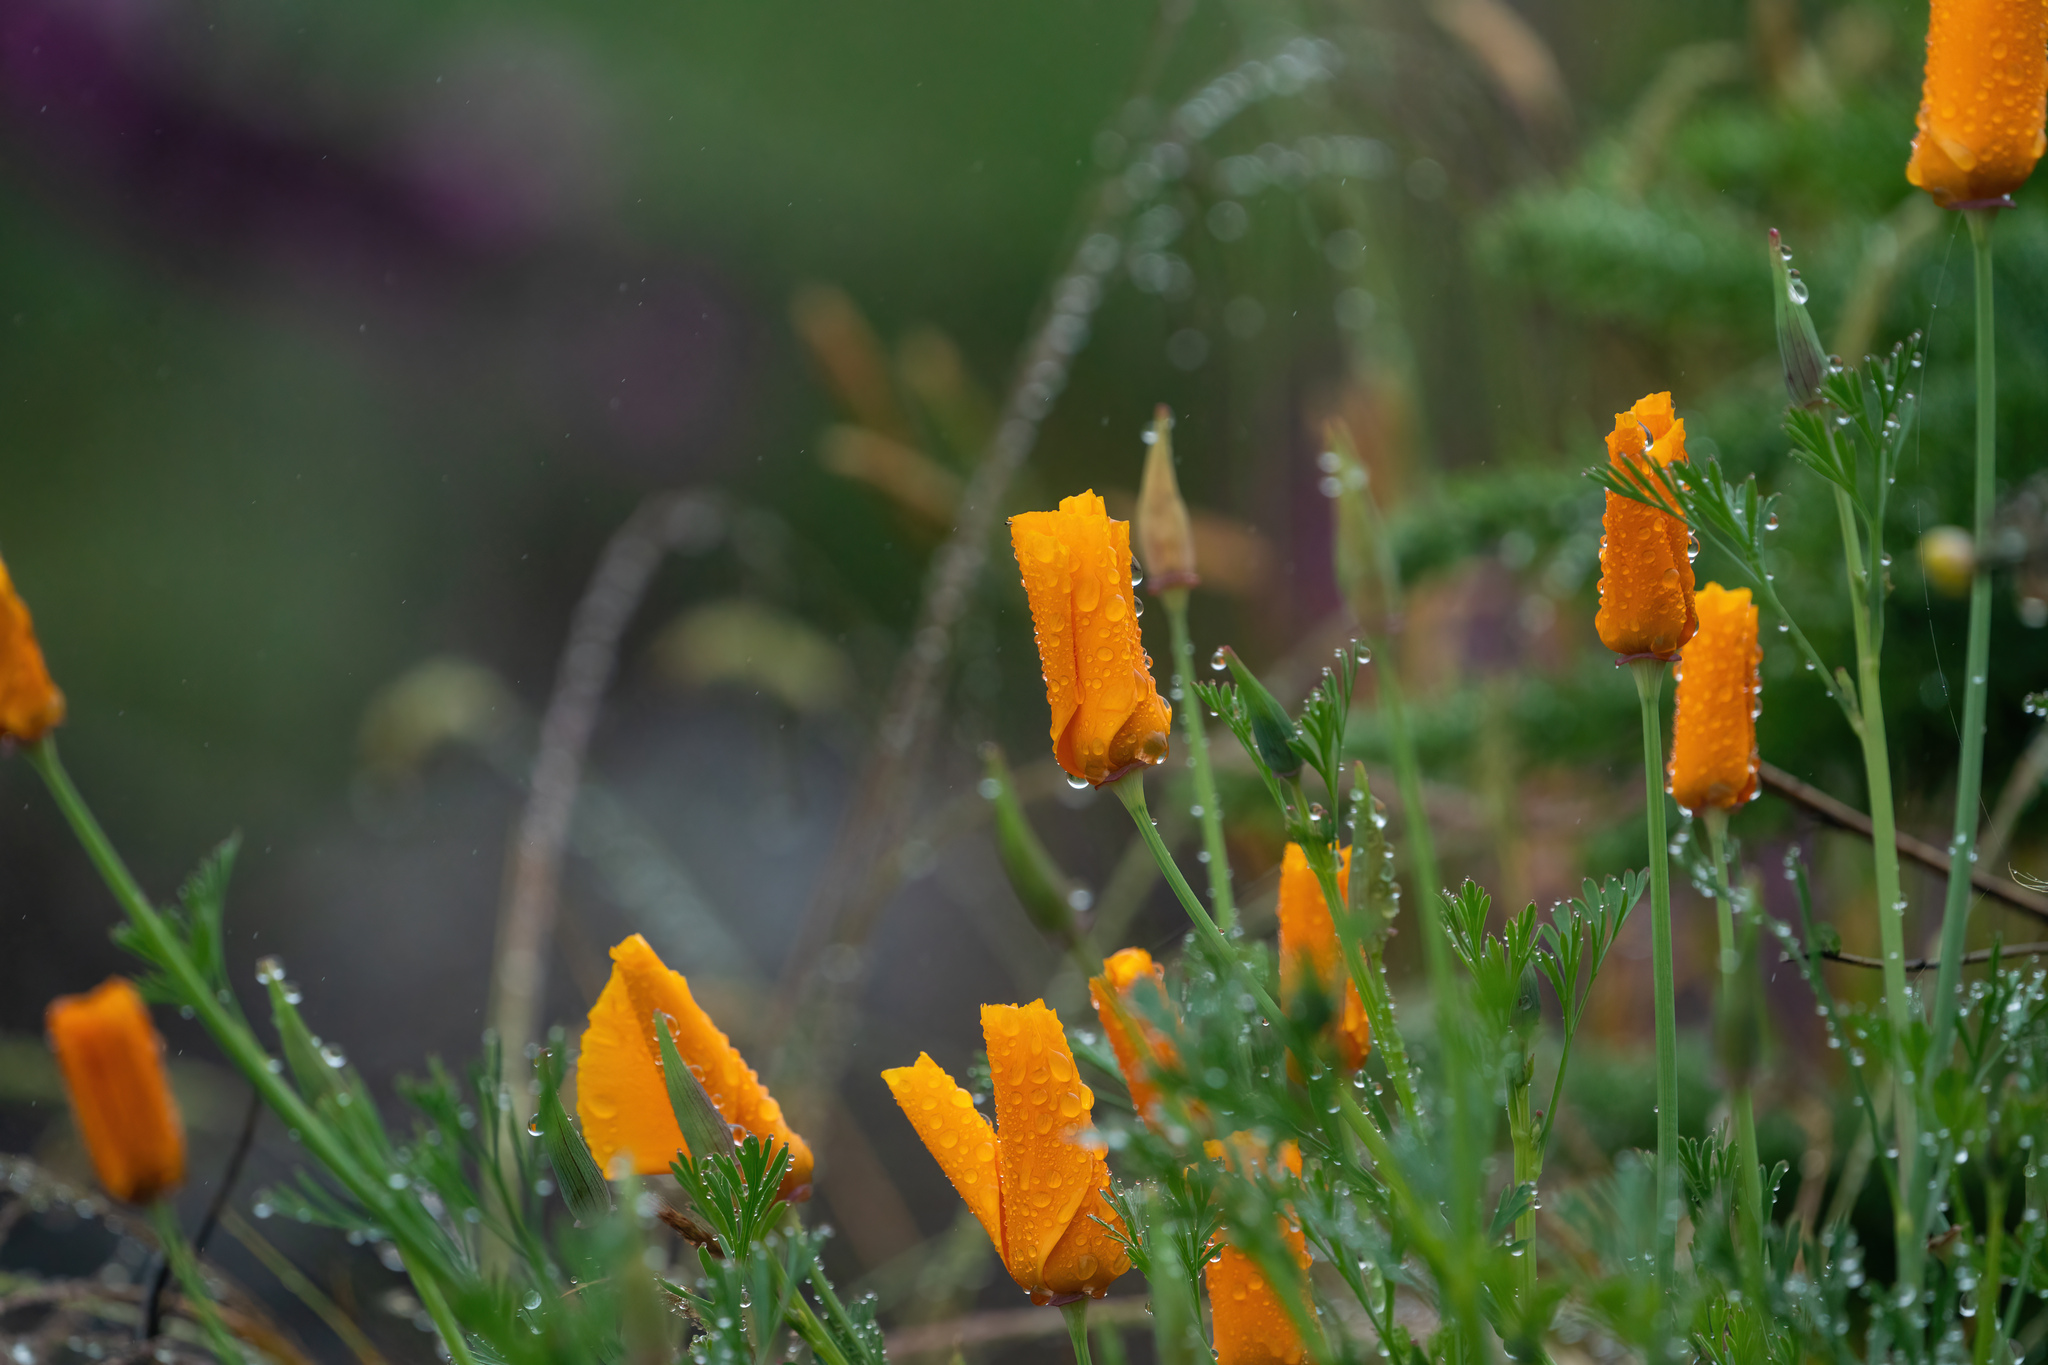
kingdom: Plantae
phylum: Tracheophyta
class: Magnoliopsida
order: Ranunculales
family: Papaveraceae
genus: Eschscholzia
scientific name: Eschscholzia californica
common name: California poppy
